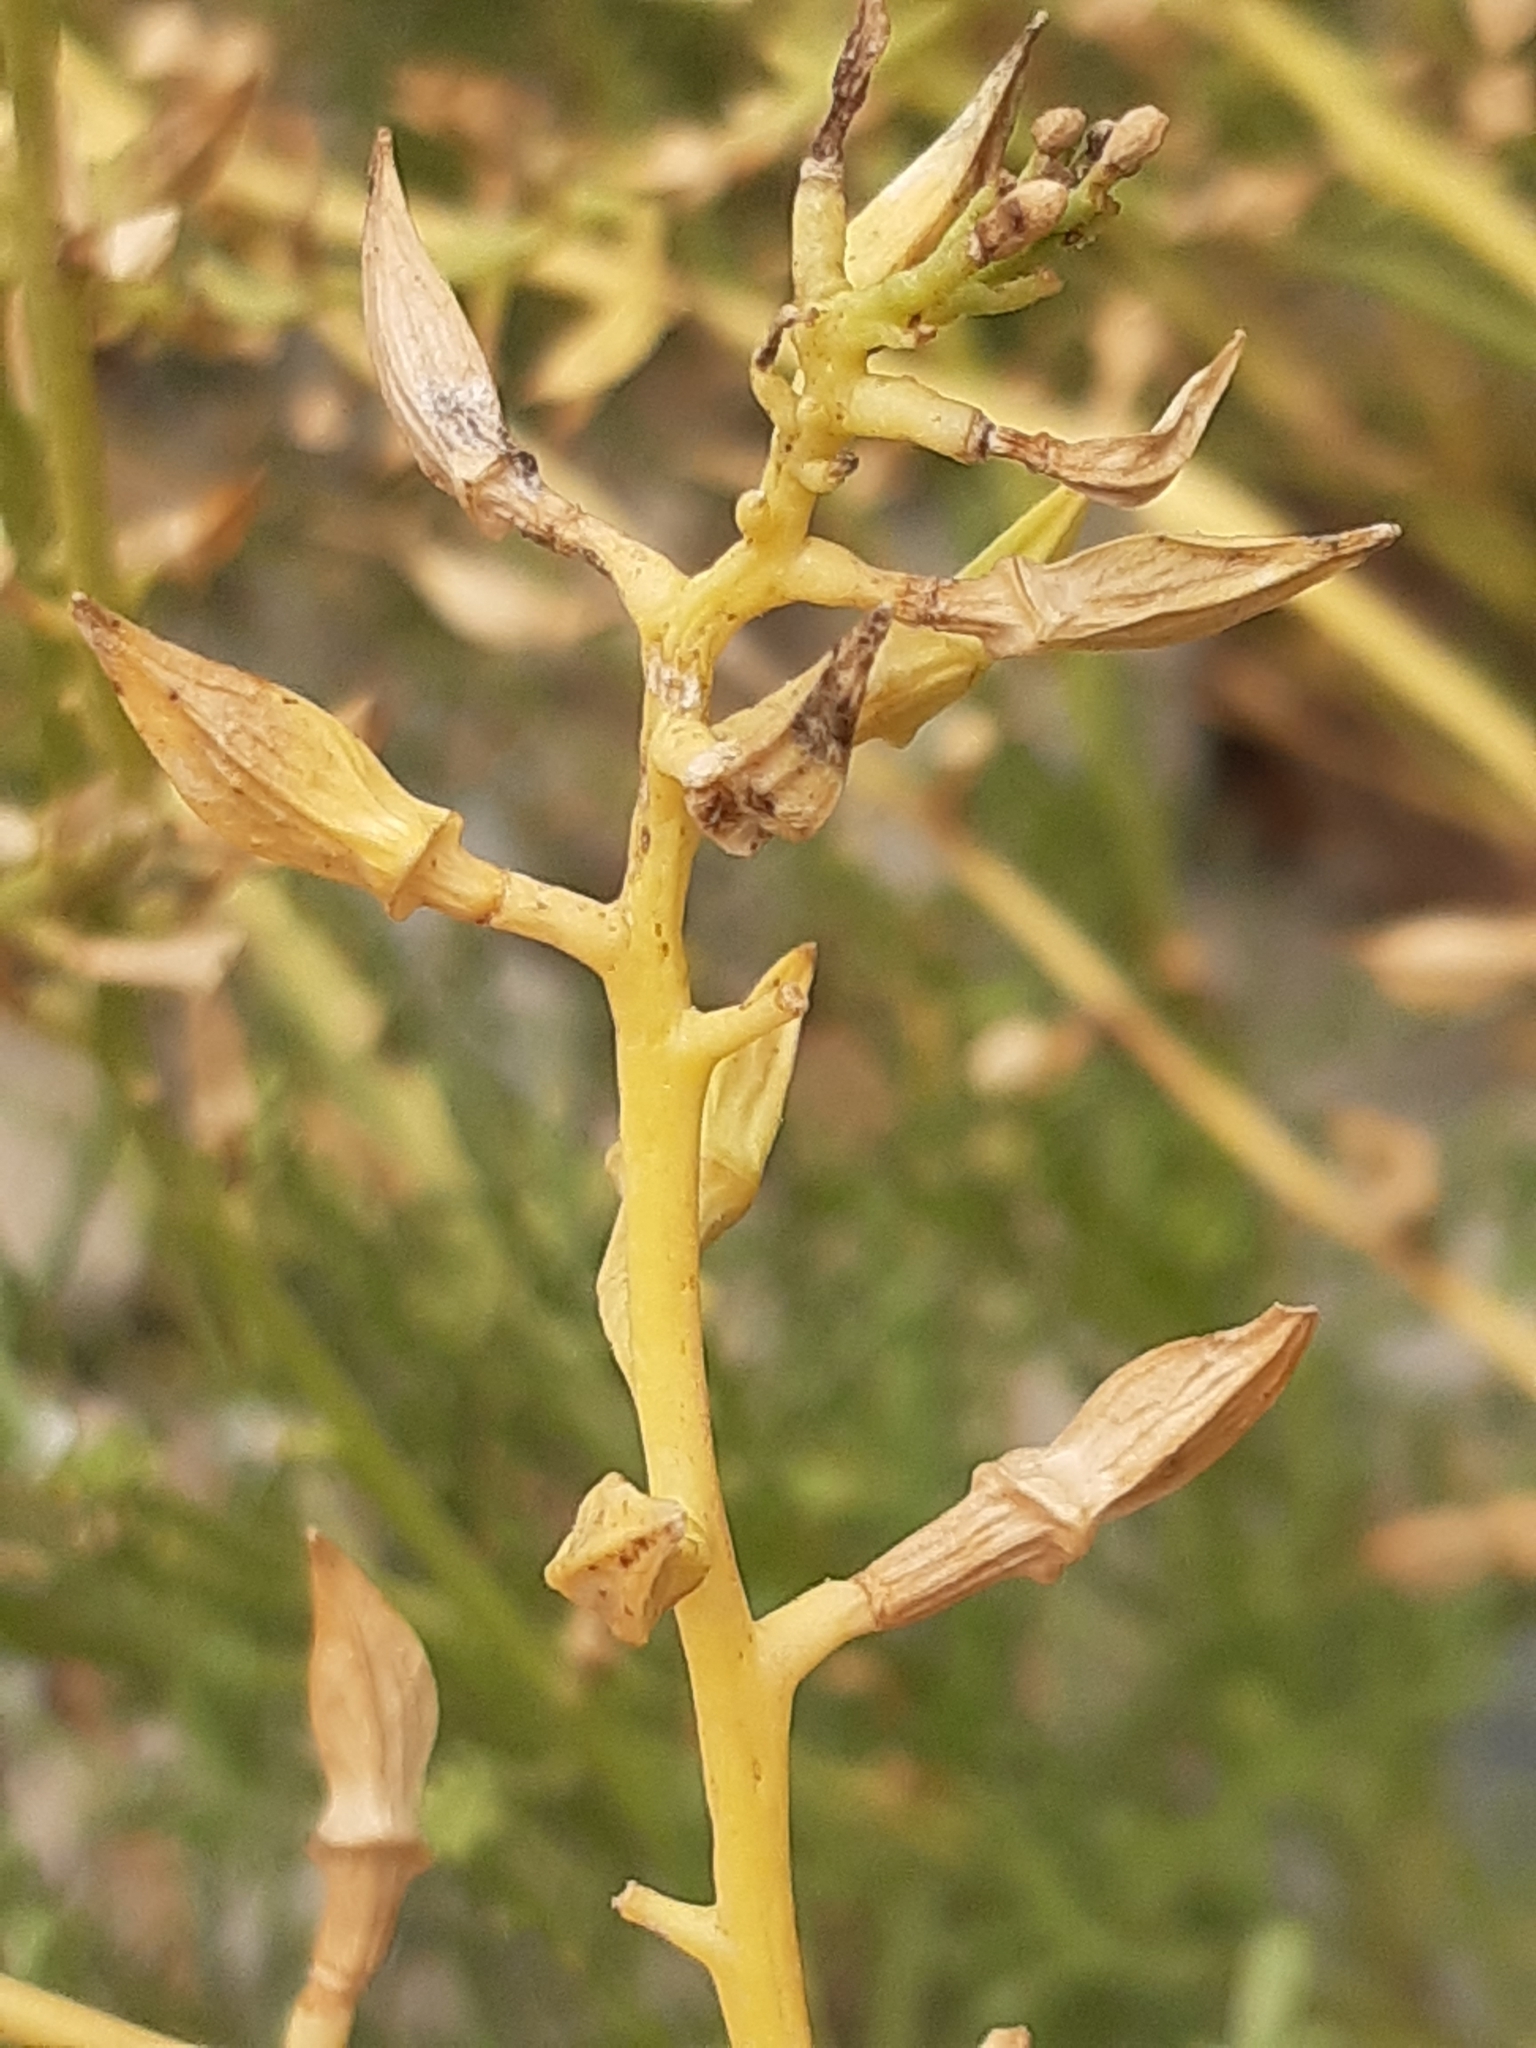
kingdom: Plantae
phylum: Tracheophyta
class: Magnoliopsida
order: Brassicales
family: Brassicaceae
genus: Cakile
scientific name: Cakile maritima
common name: Sea rocket
